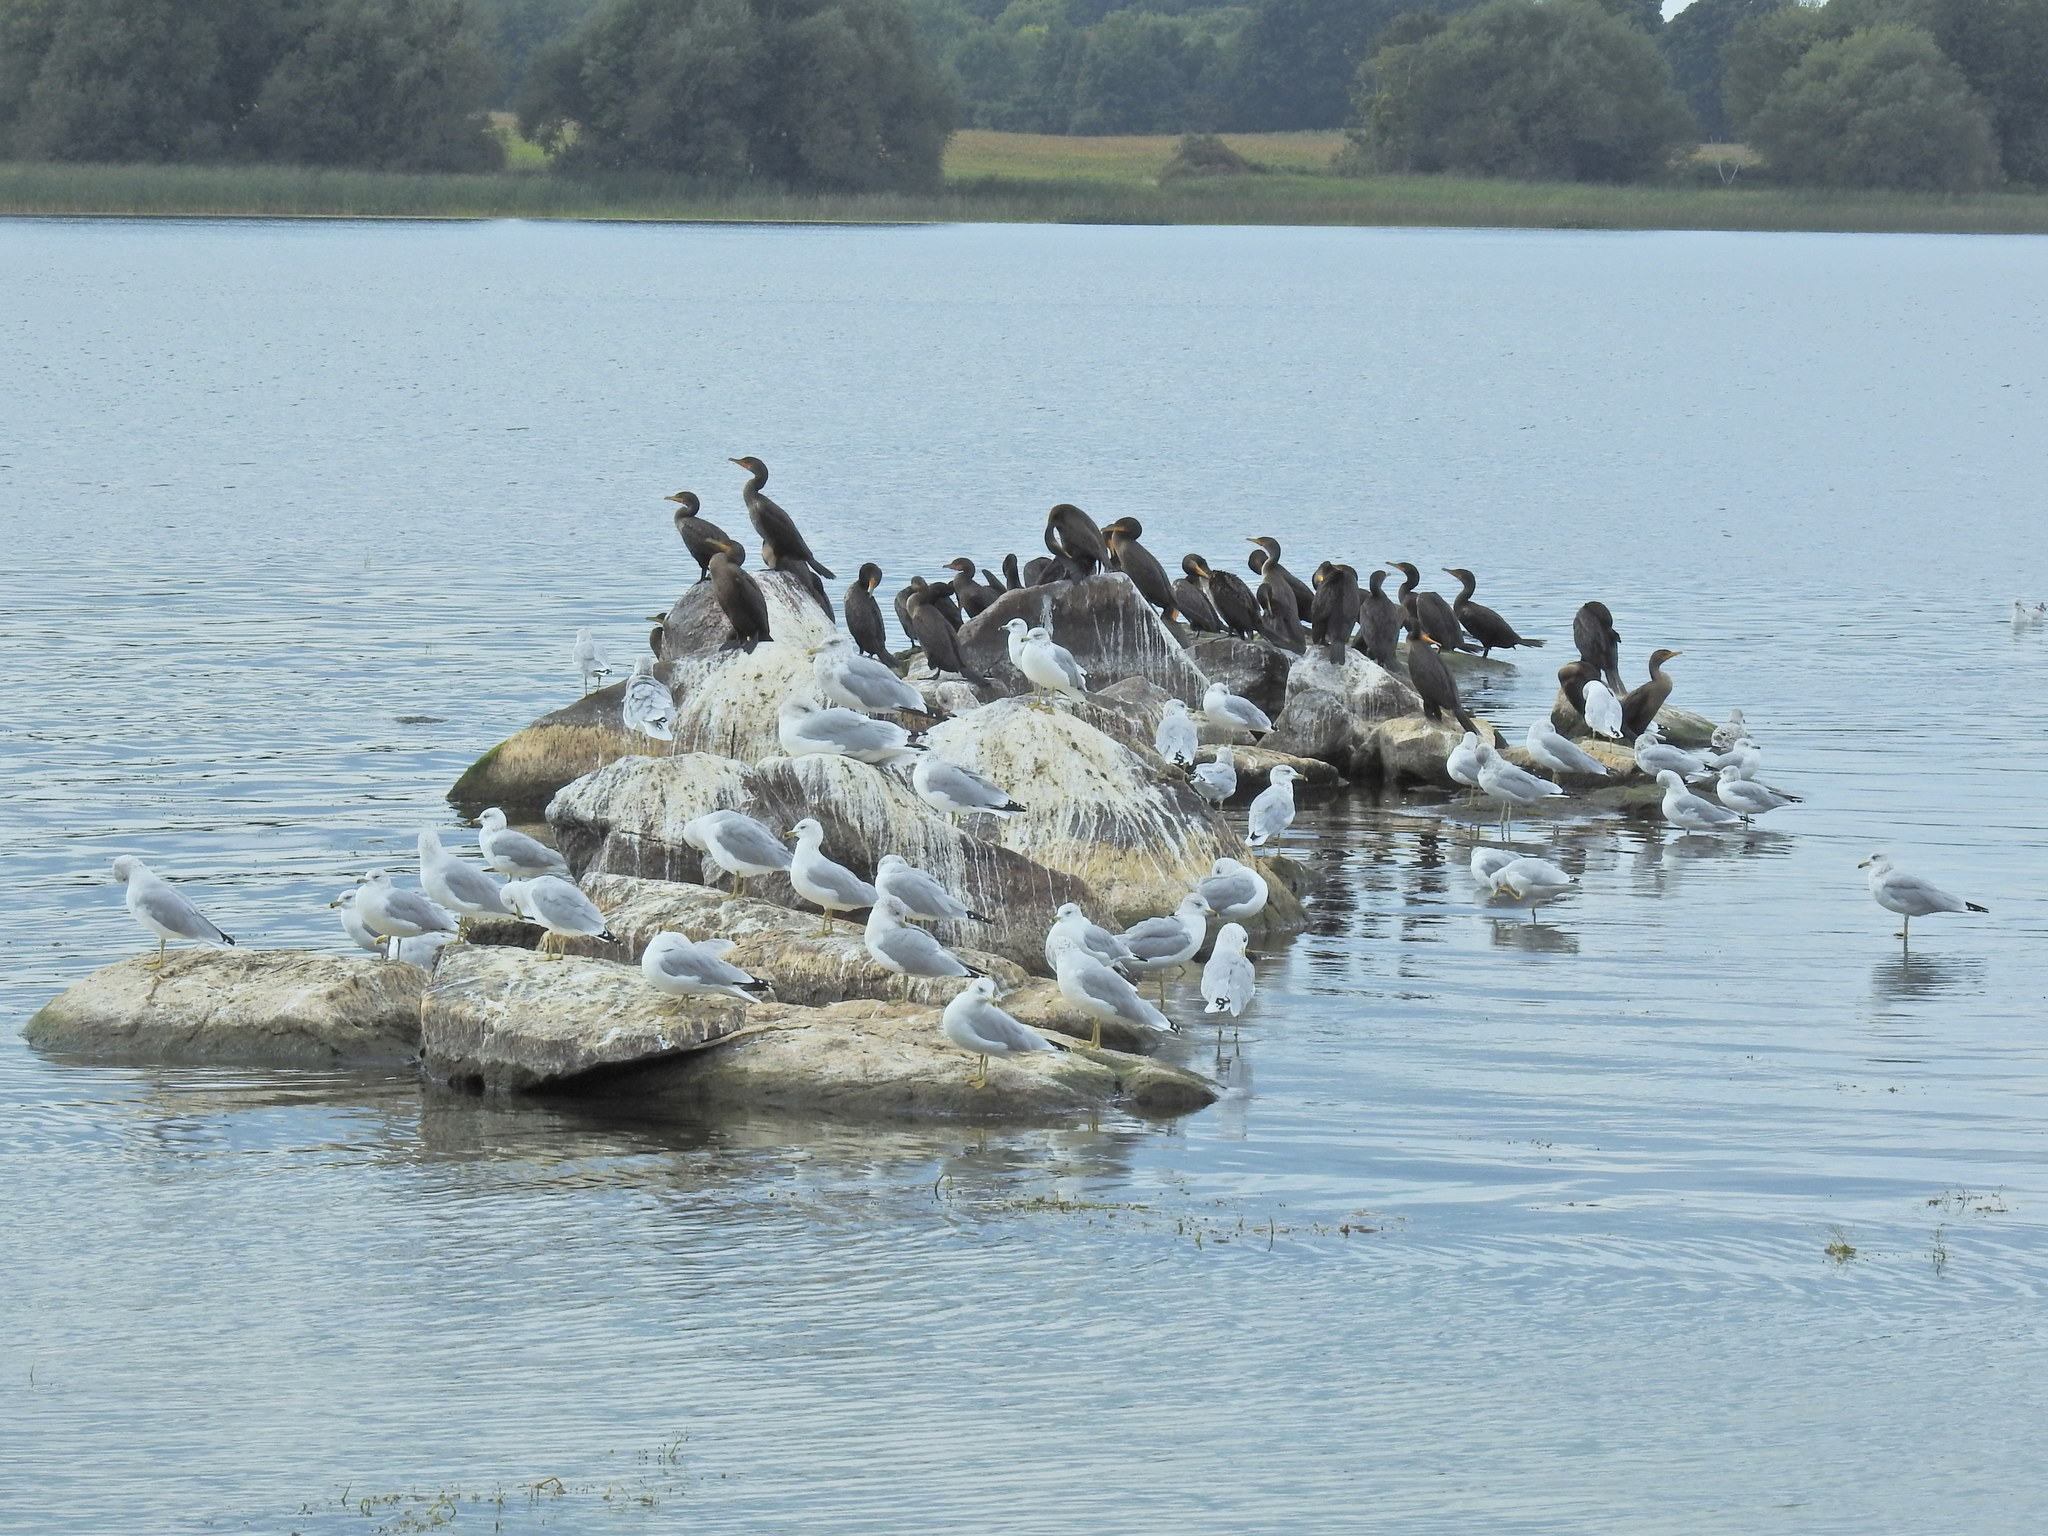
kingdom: Animalia
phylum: Chordata
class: Aves
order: Suliformes
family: Phalacrocoracidae
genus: Phalacrocorax
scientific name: Phalacrocorax auritus
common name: Double-crested cormorant
